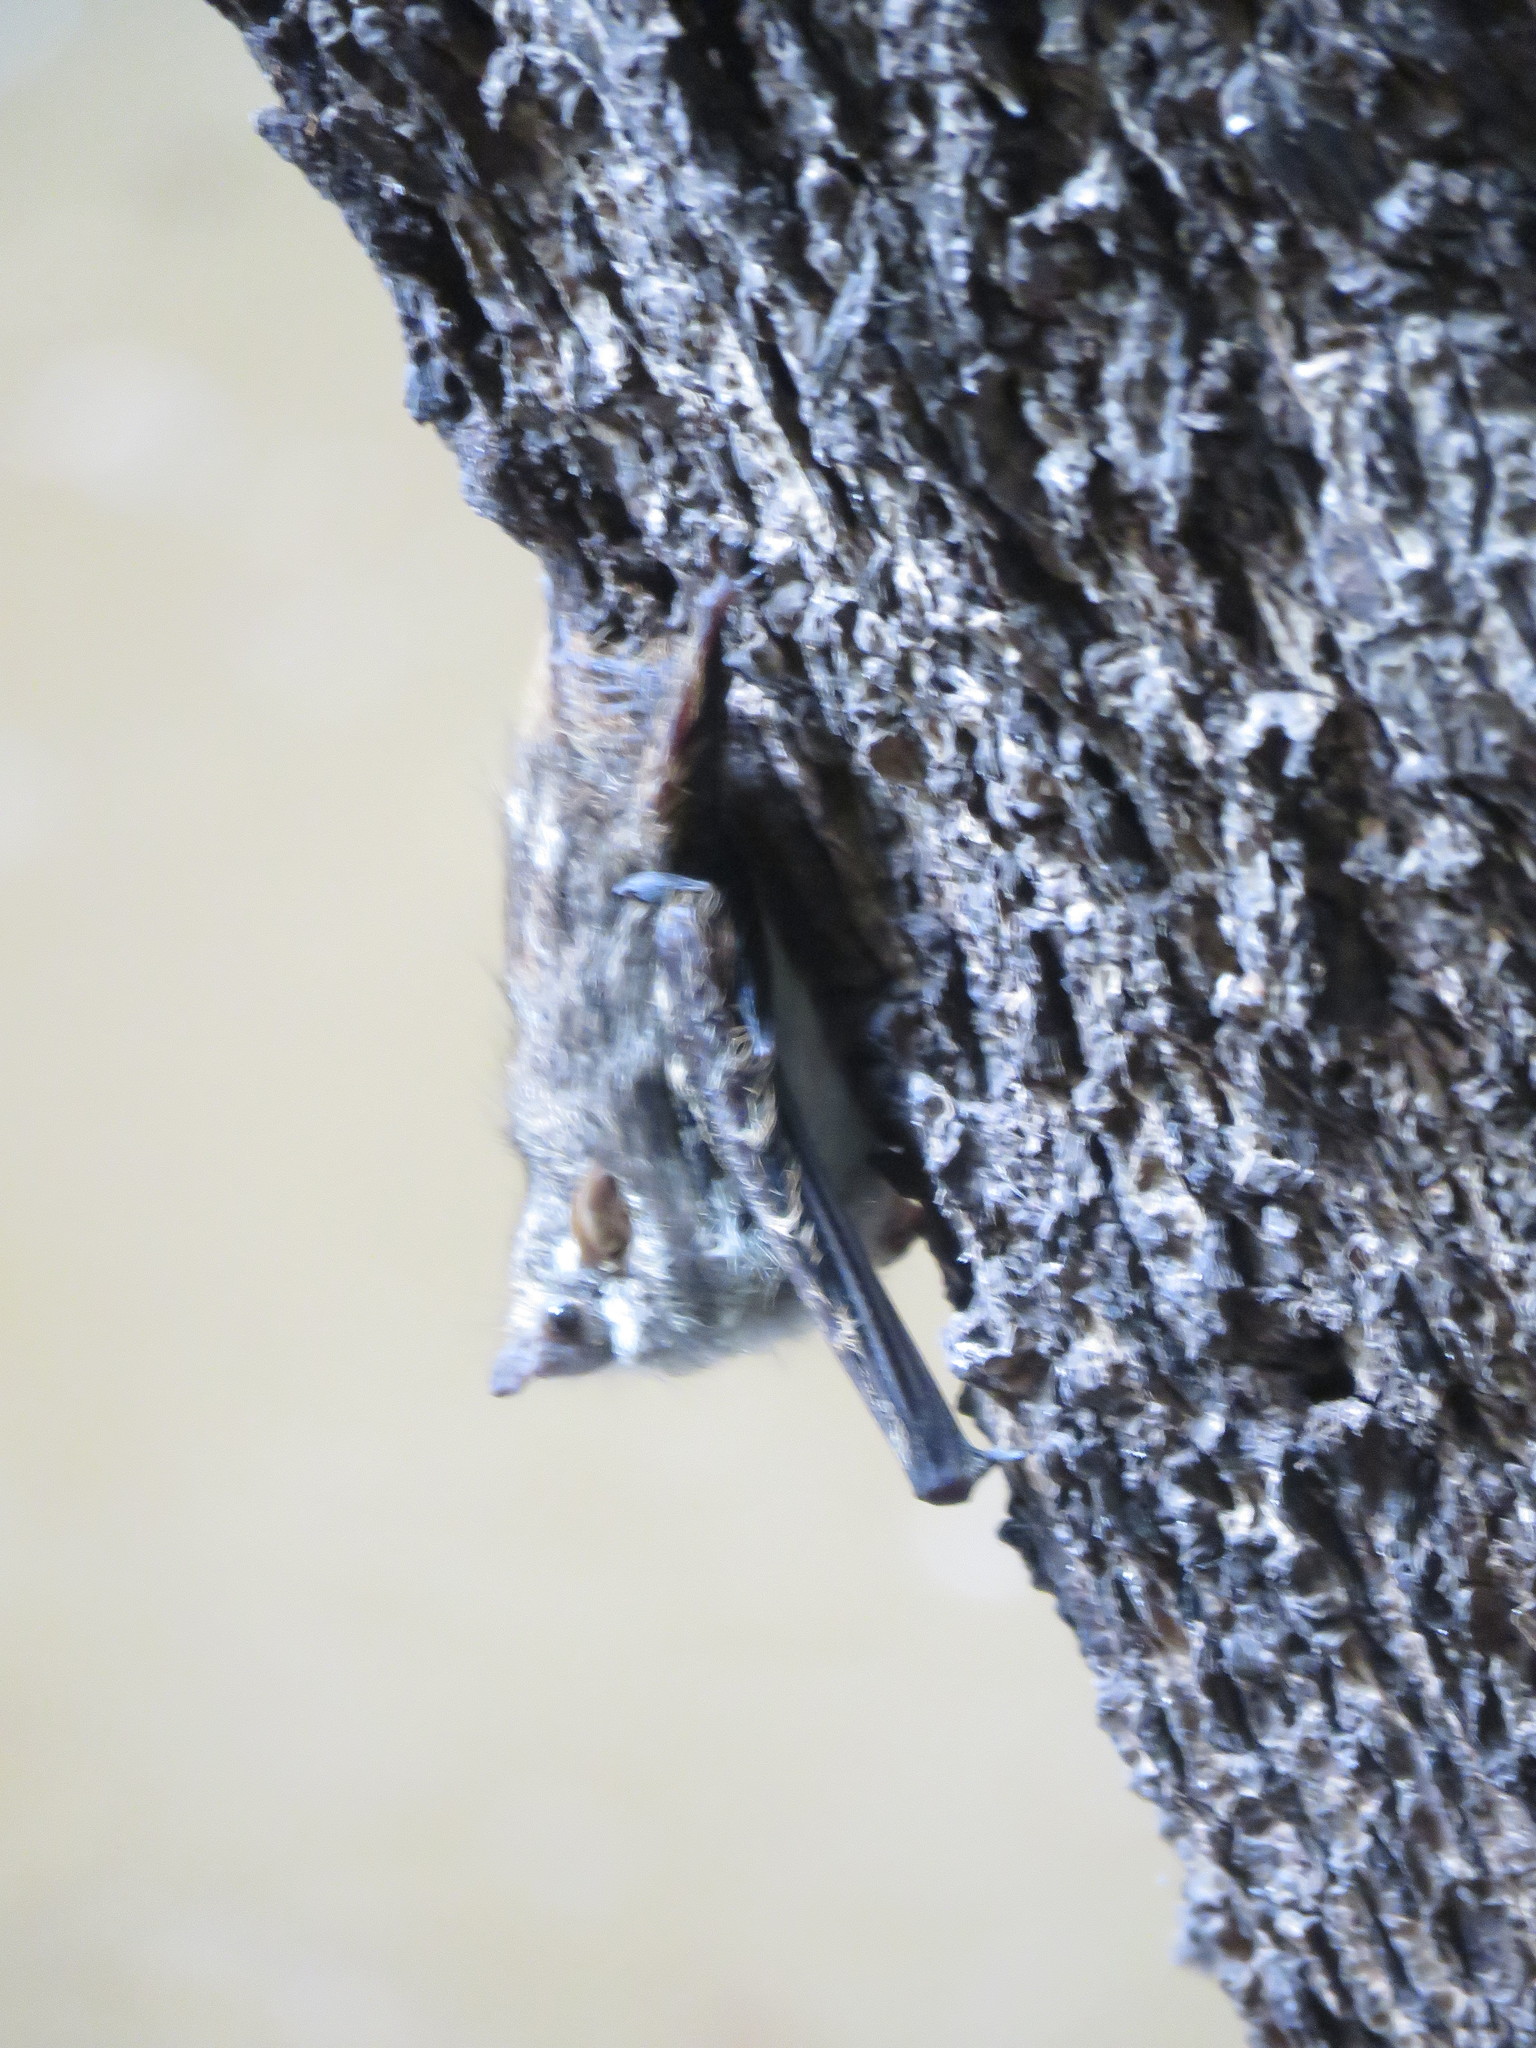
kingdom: Animalia
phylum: Chordata
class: Mammalia
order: Chiroptera
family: Emballonuridae
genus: Rhynchonycteris
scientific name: Rhynchonycteris naso
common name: Proboscis bat
